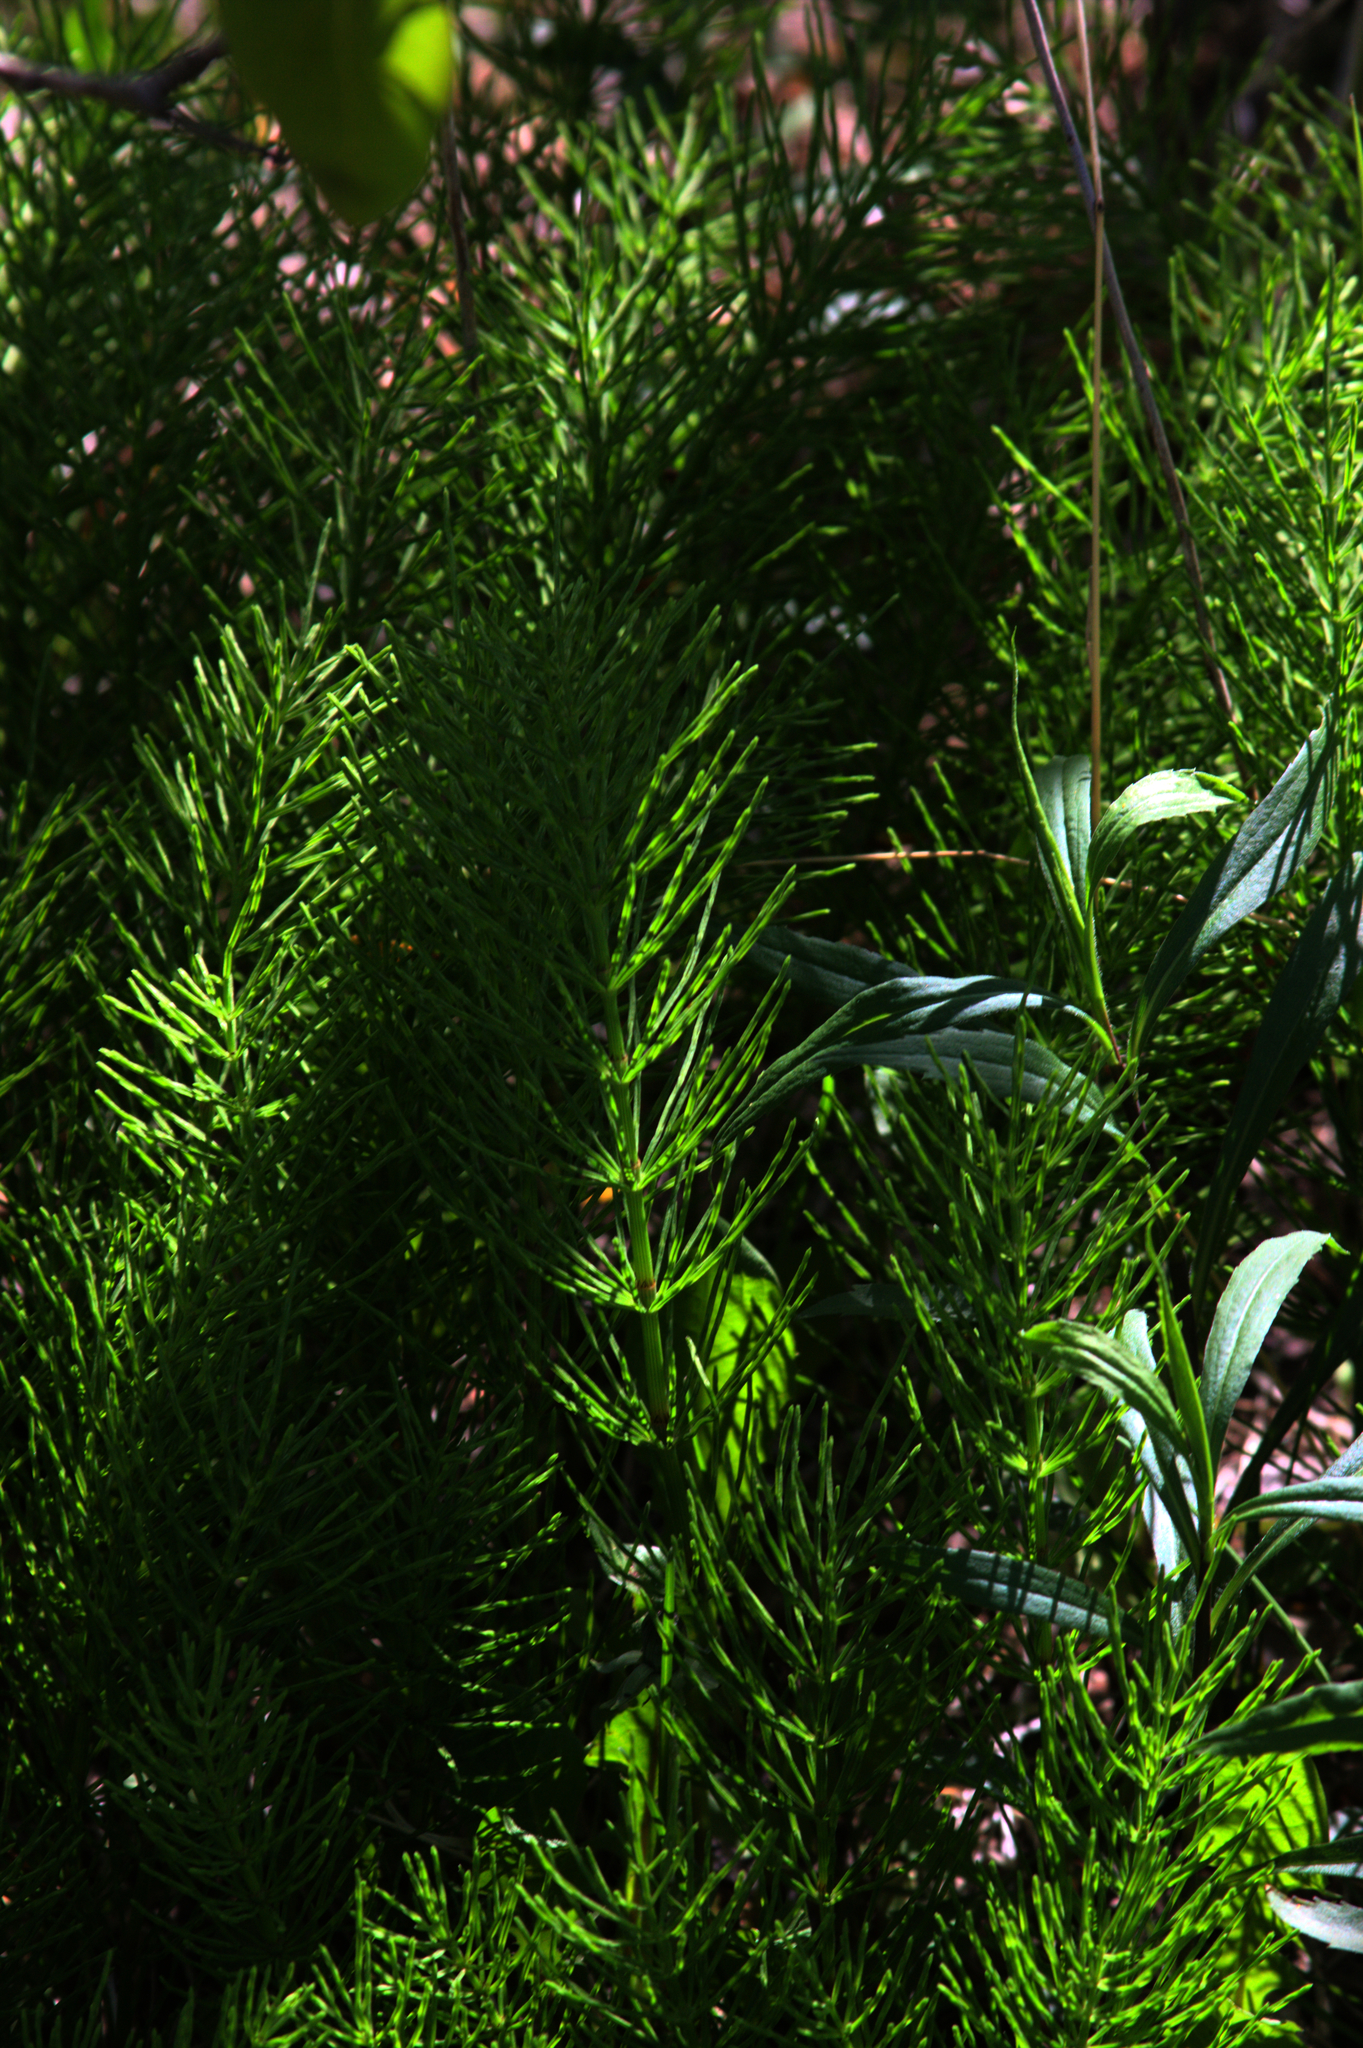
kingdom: Plantae
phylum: Tracheophyta
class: Polypodiopsida
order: Equisetales
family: Equisetaceae
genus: Equisetum
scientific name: Equisetum arvense
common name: Field horsetail
